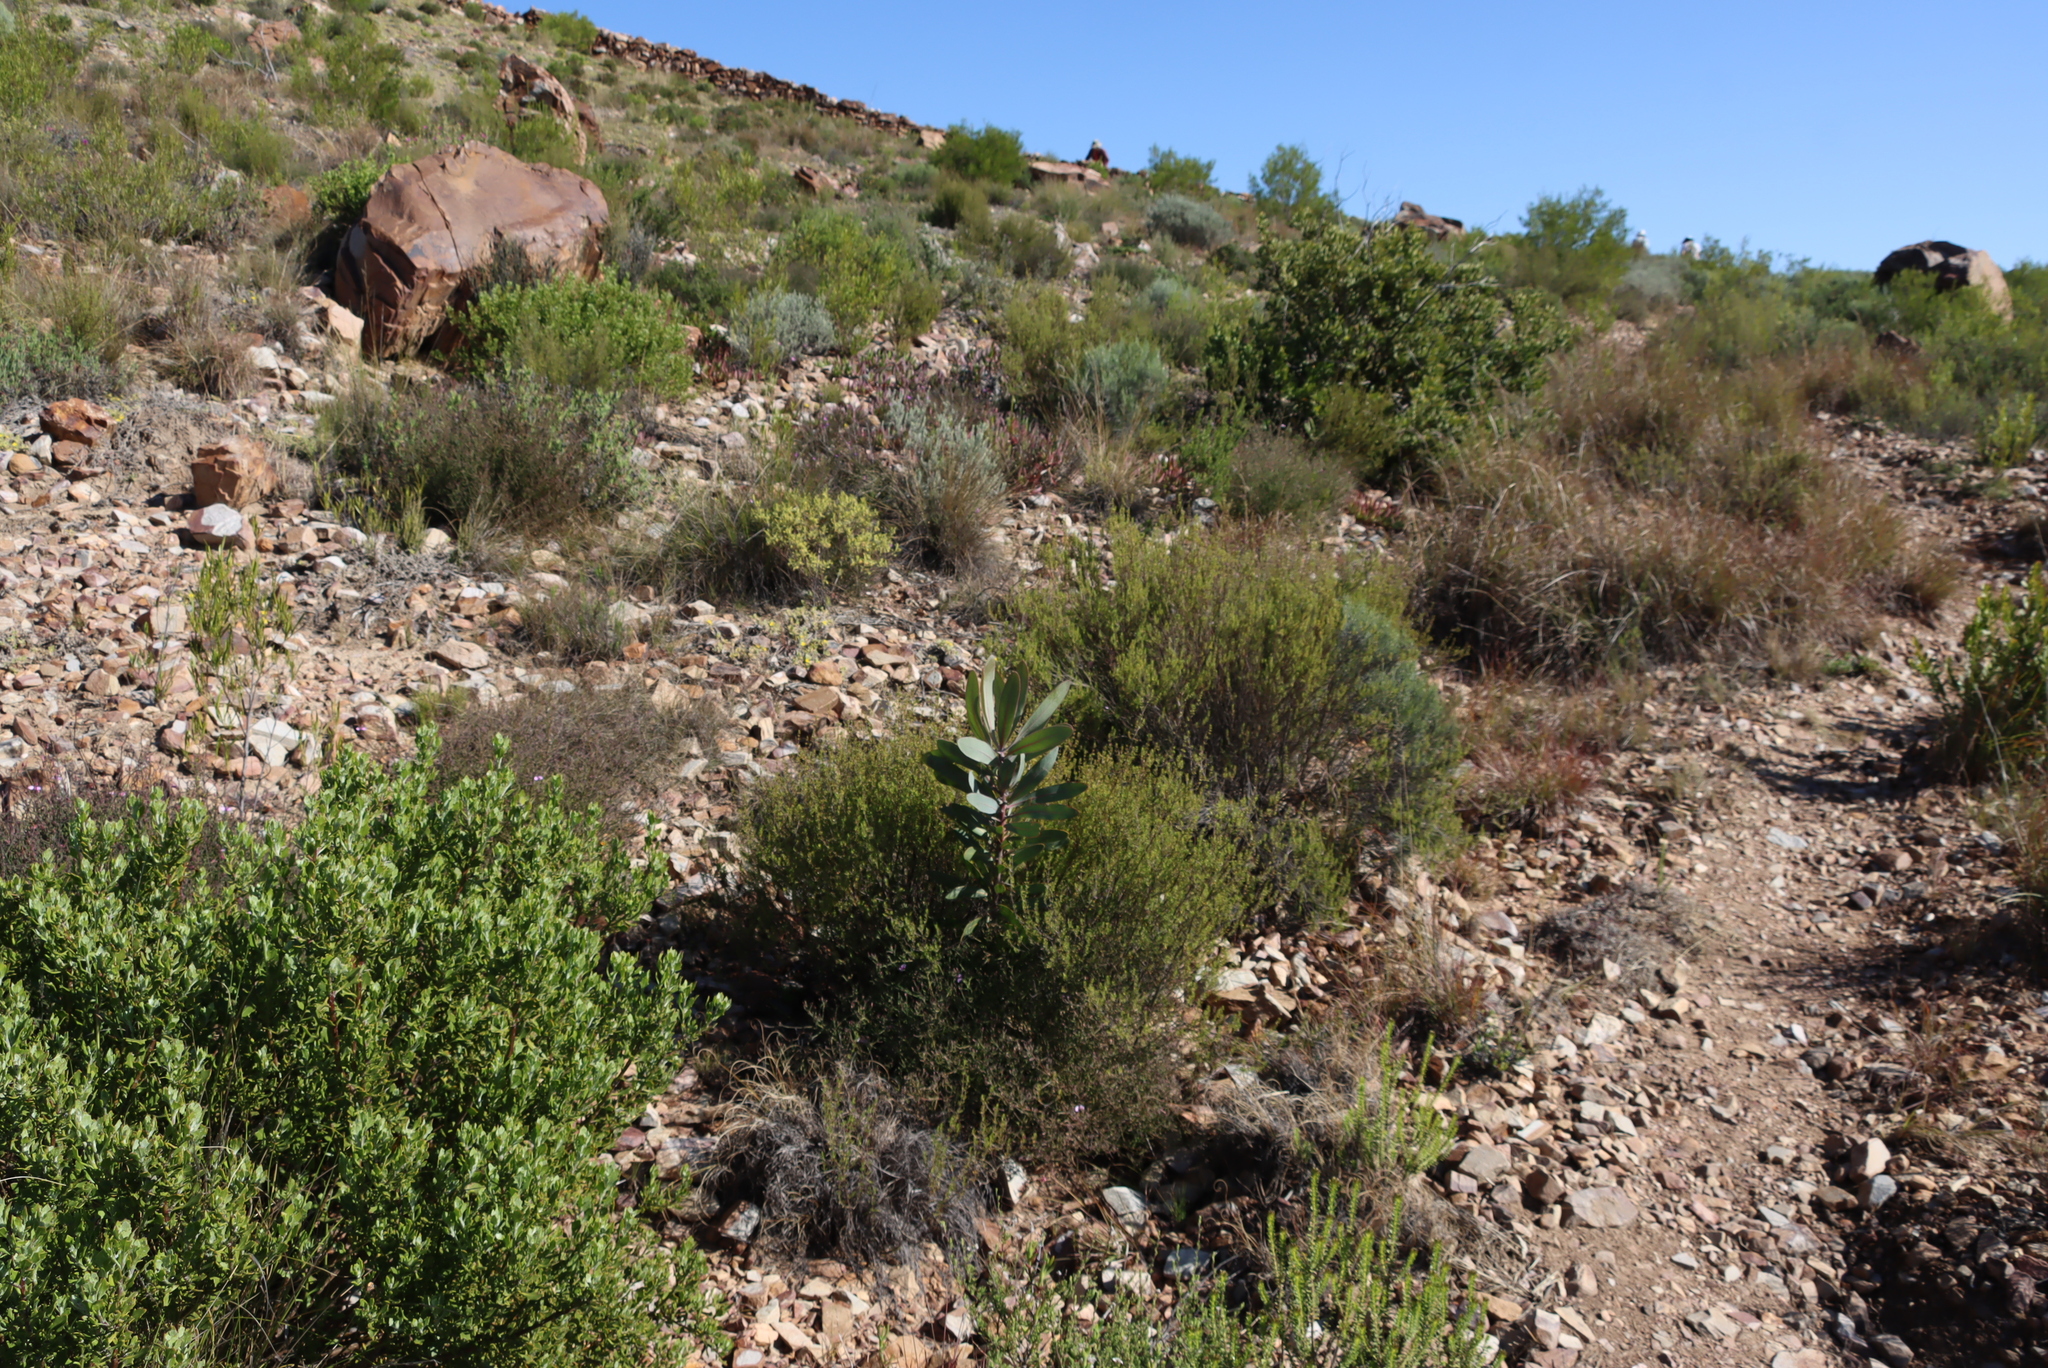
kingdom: Plantae
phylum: Tracheophyta
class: Magnoliopsida
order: Proteales
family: Proteaceae
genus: Protea
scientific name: Protea lorifolia
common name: Strap-leaved protea
